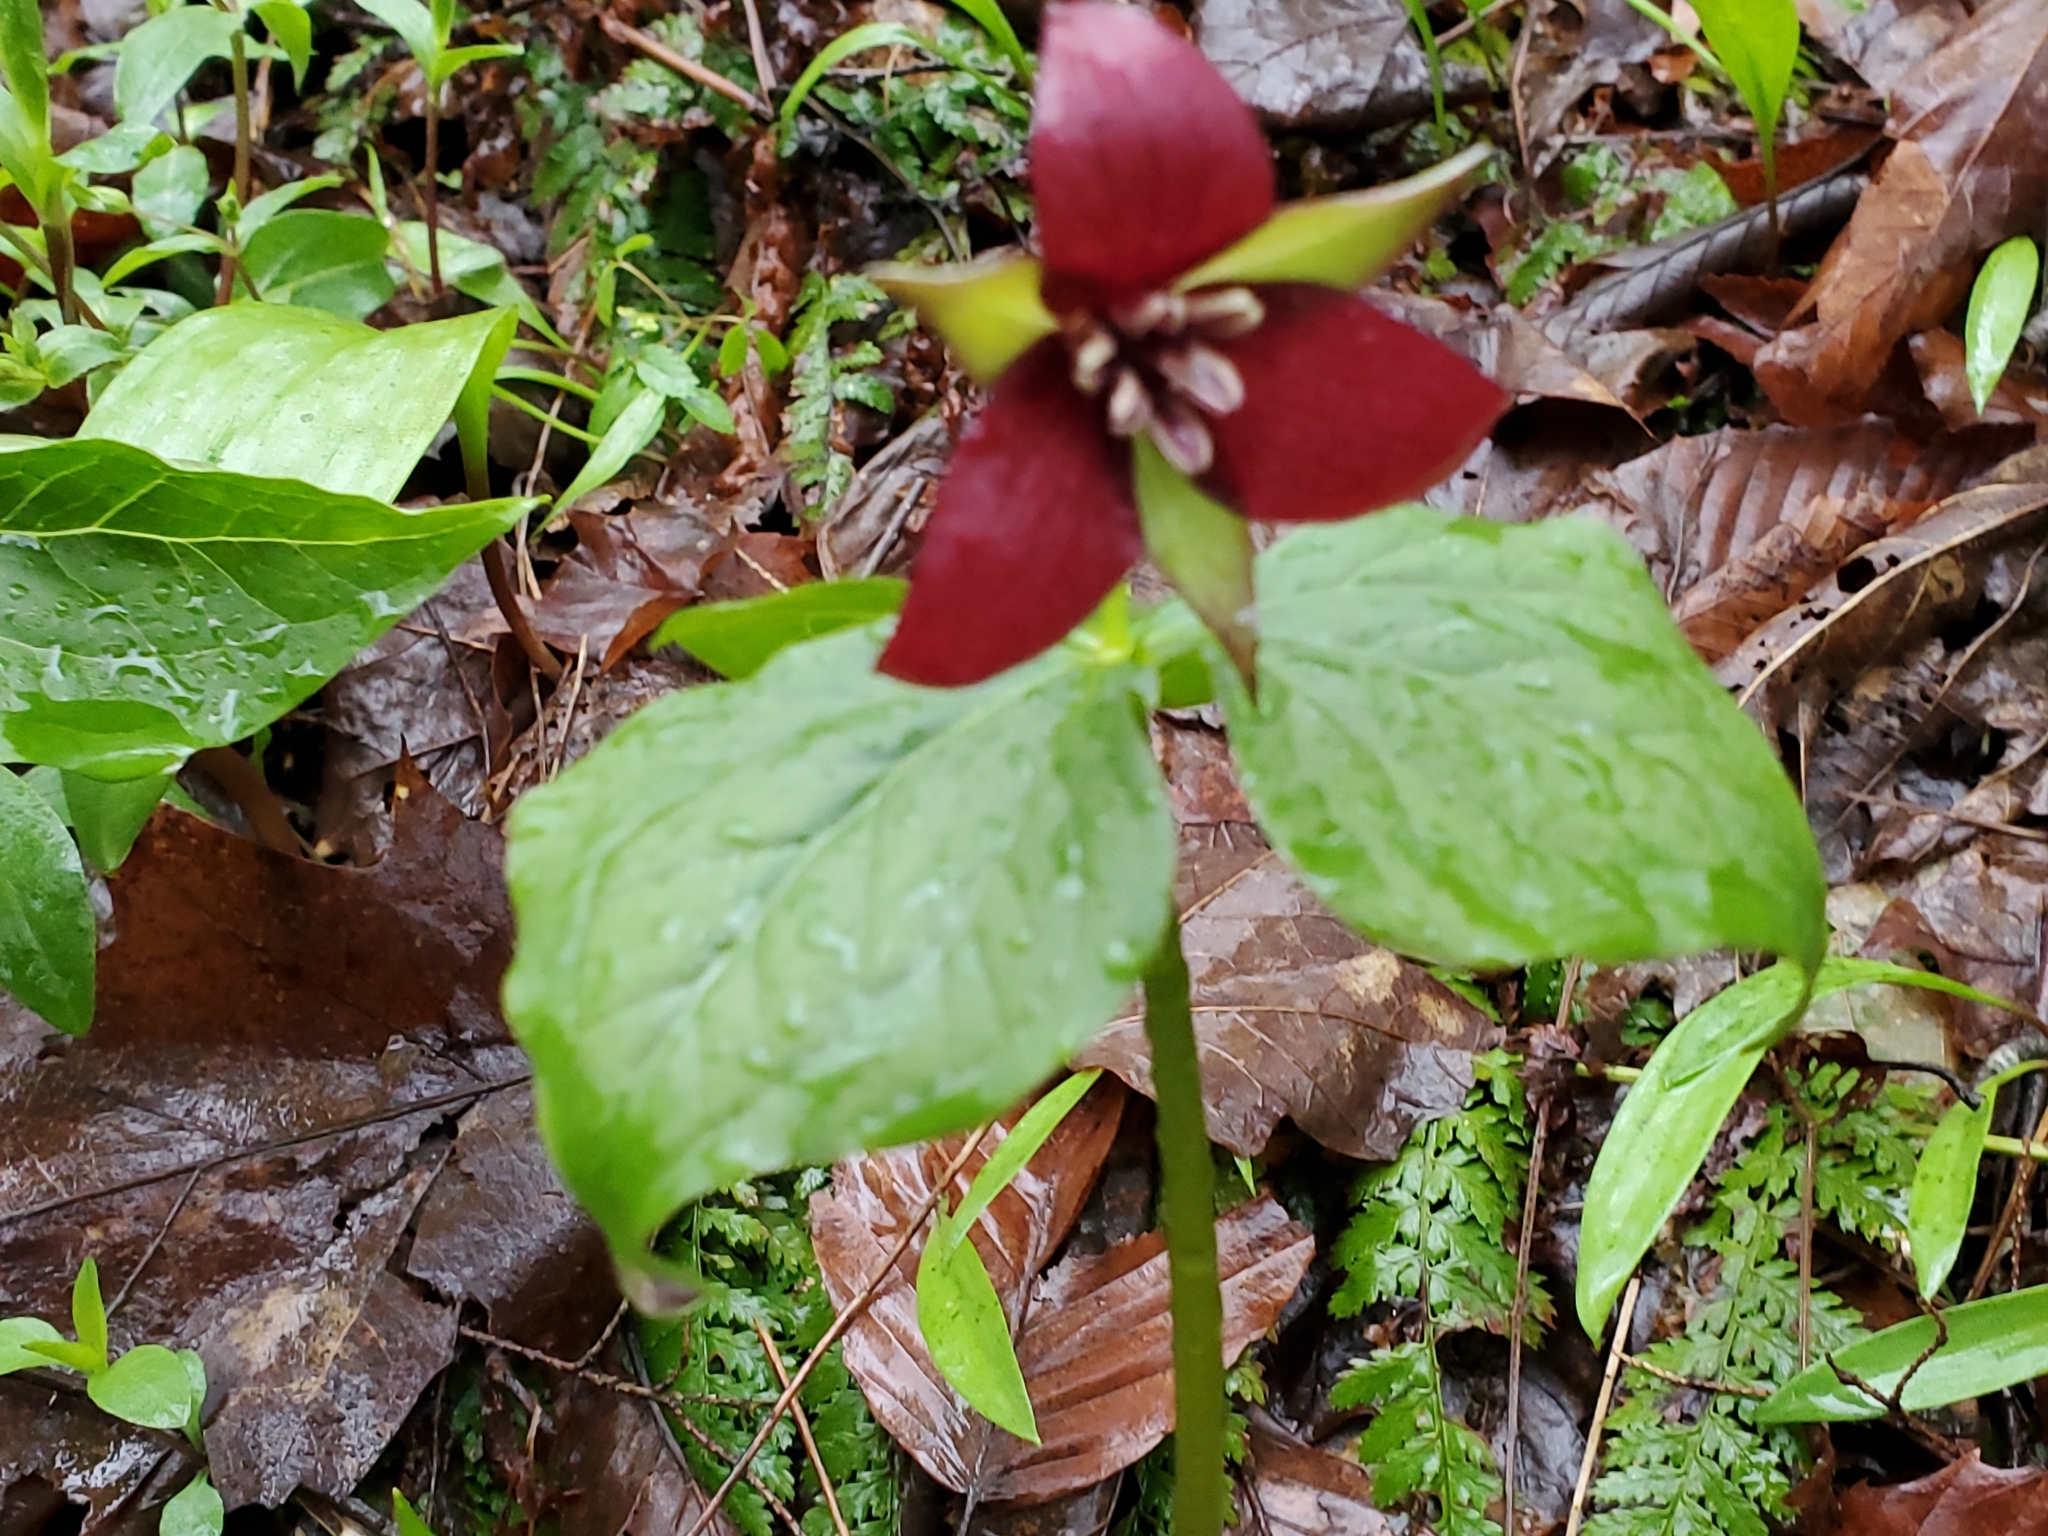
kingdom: Plantae
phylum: Tracheophyta
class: Liliopsida
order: Liliales
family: Melanthiaceae
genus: Trillium
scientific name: Trillium erectum
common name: Purple trillium
